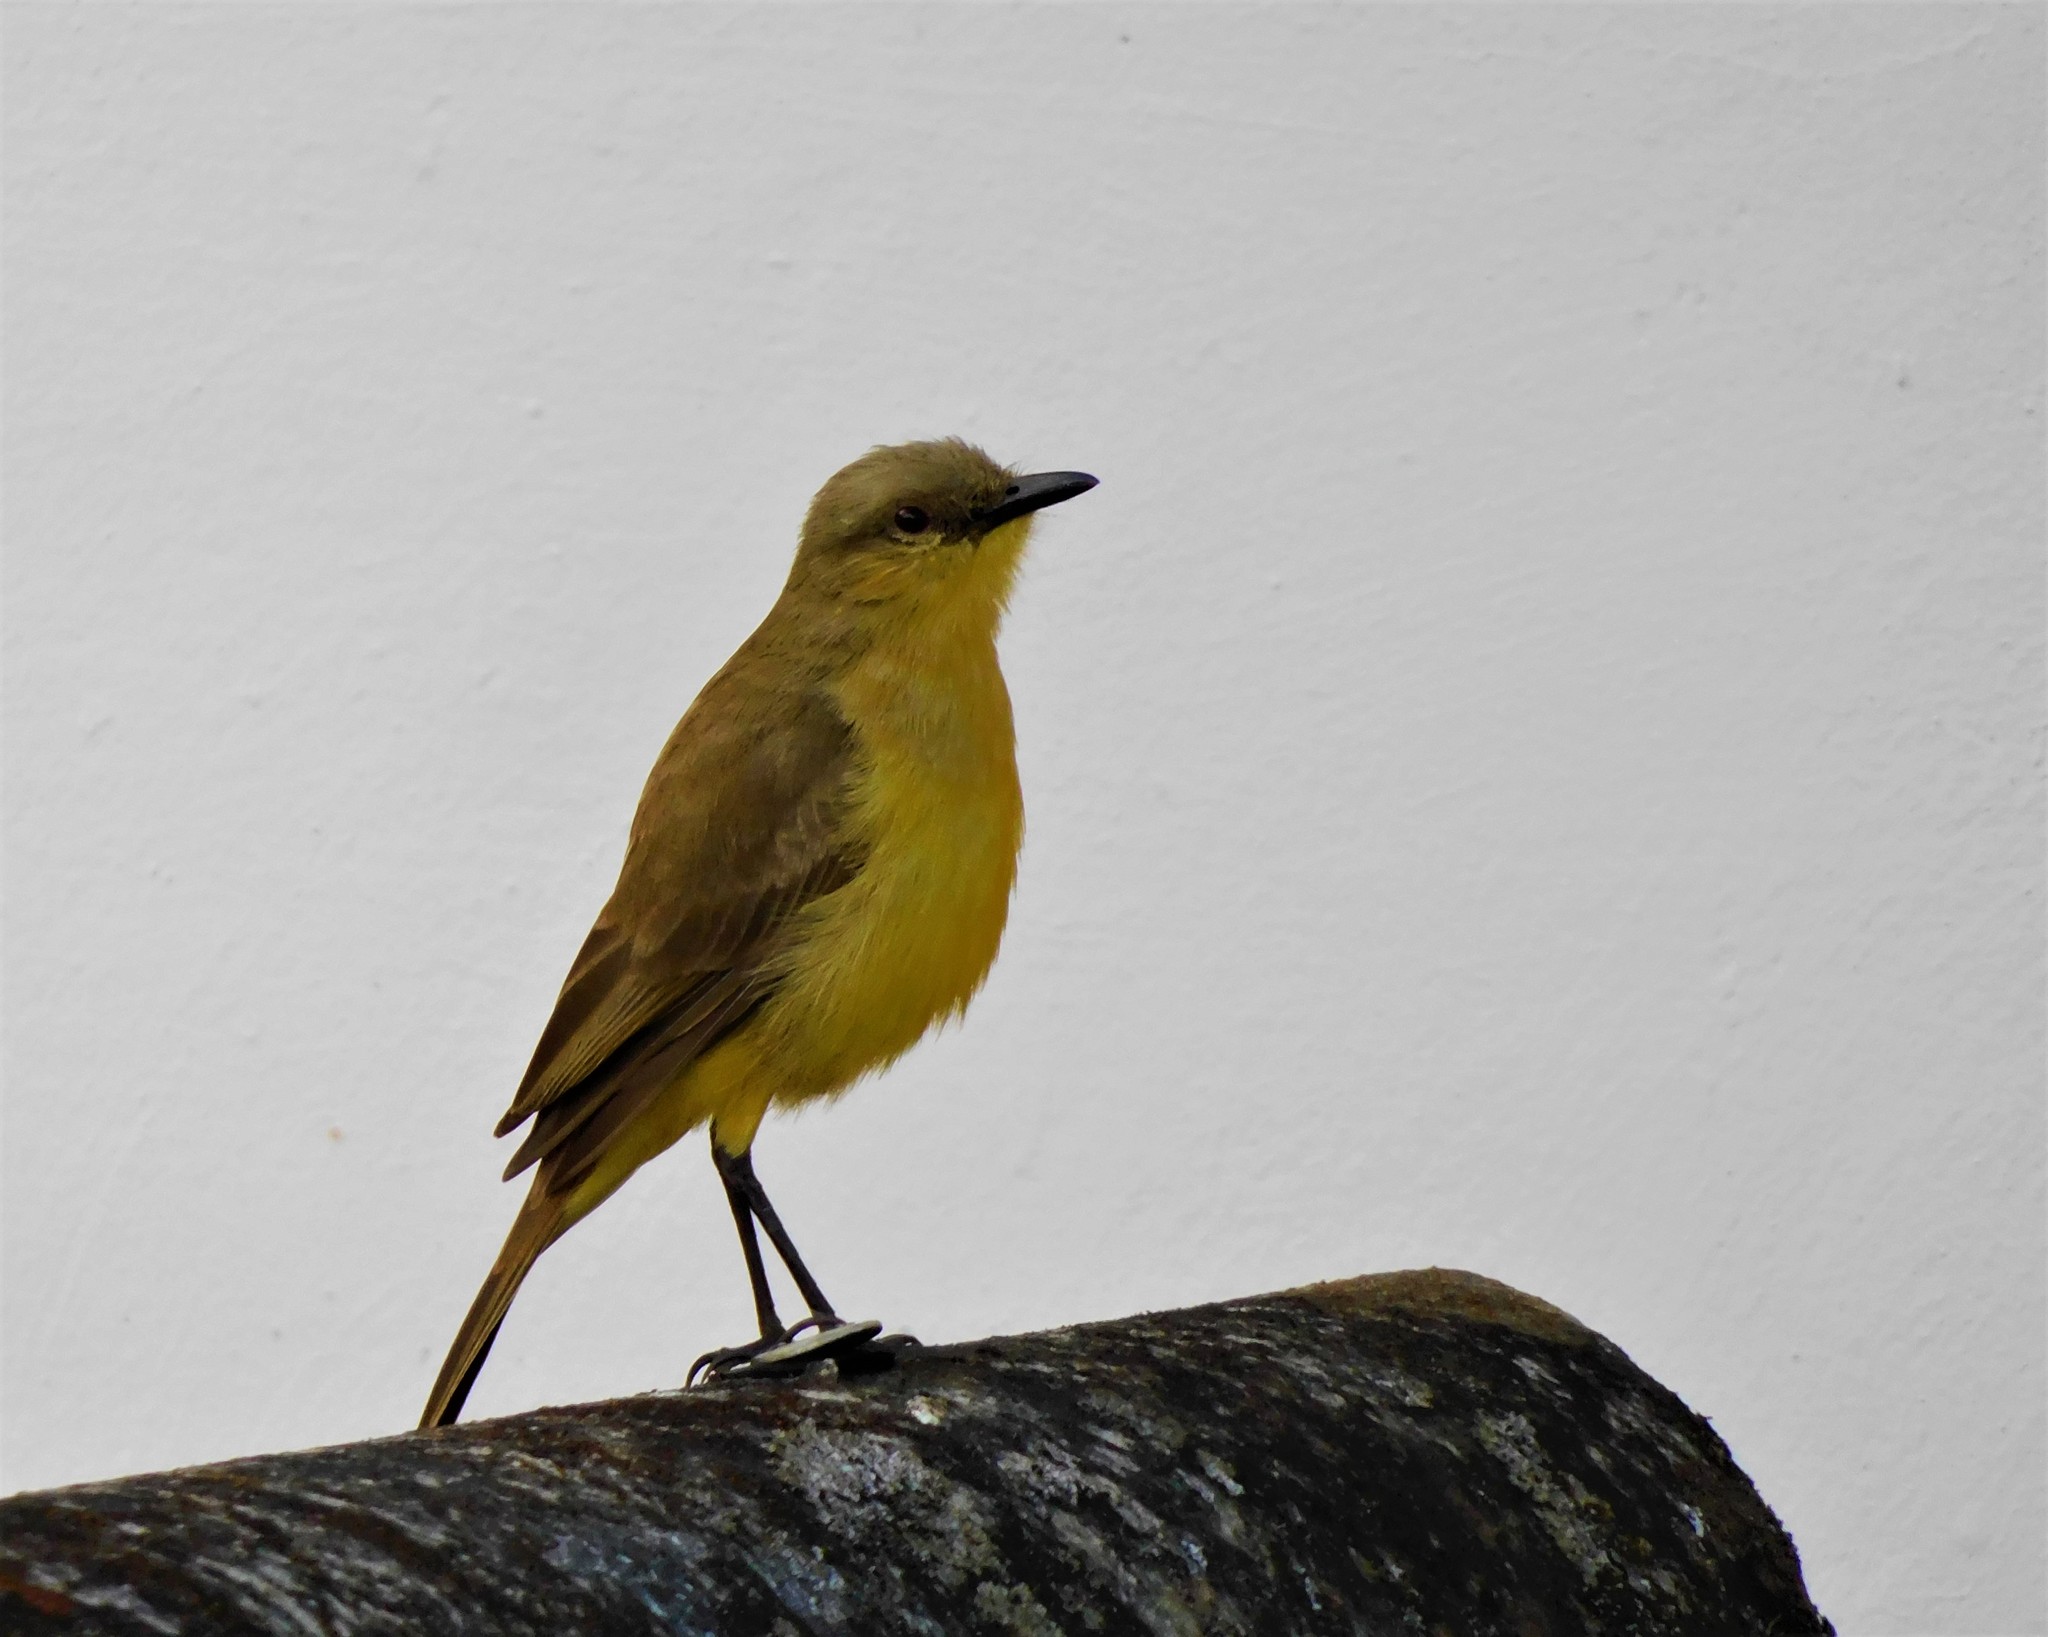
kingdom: Animalia
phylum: Chordata
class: Aves
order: Passeriformes
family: Tyrannidae
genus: Machetornis
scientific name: Machetornis rixosa
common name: Cattle tyrant
